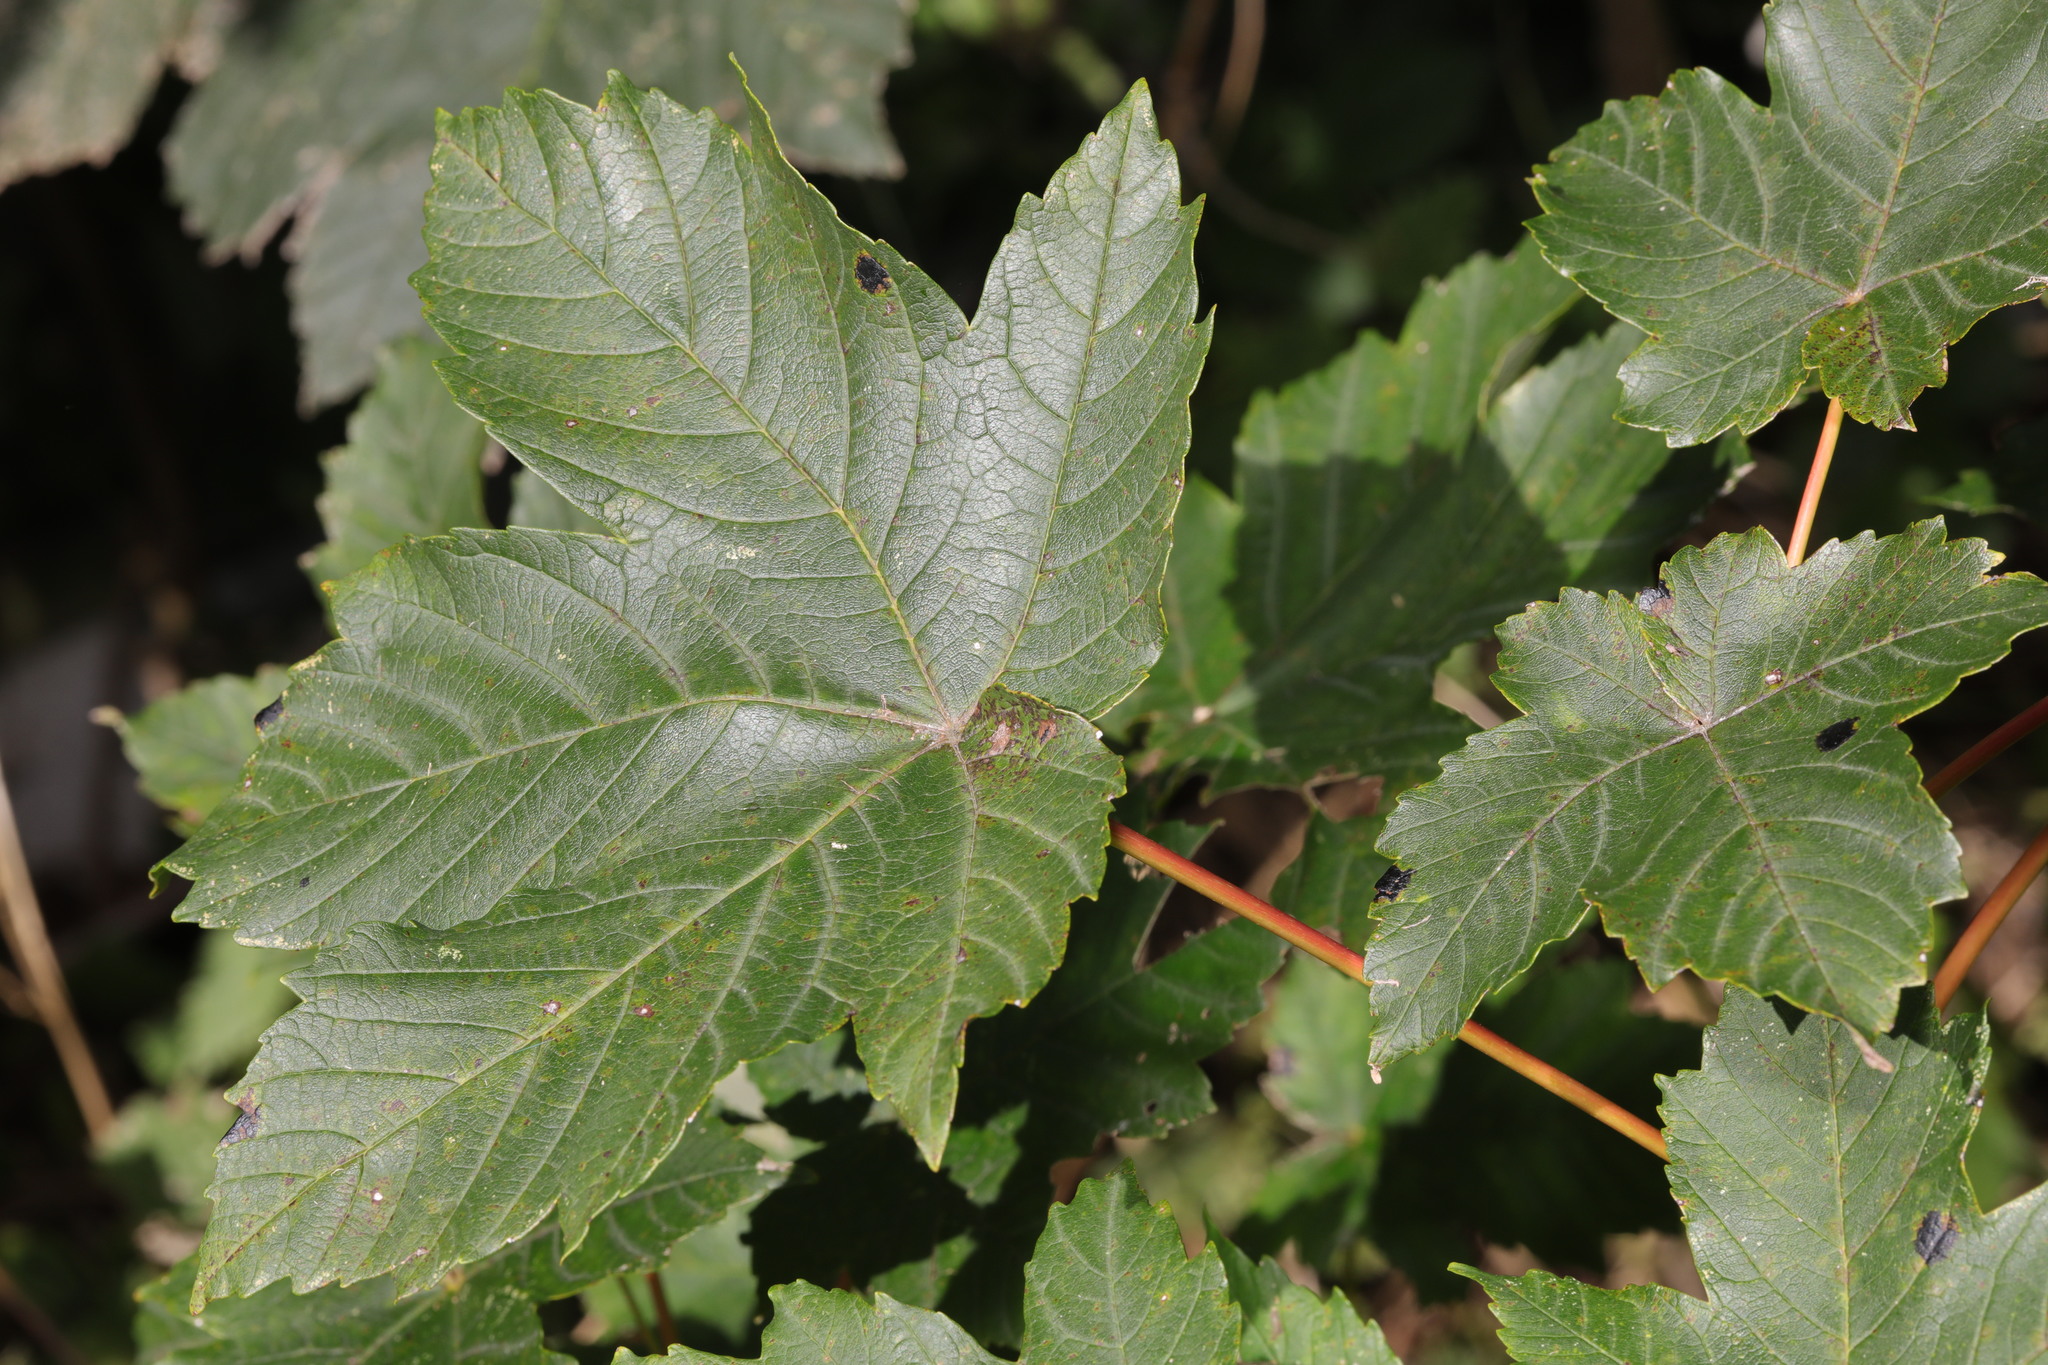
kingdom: Plantae
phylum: Tracheophyta
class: Magnoliopsida
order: Sapindales
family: Sapindaceae
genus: Acer
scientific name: Acer pseudoplatanus
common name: Sycamore
